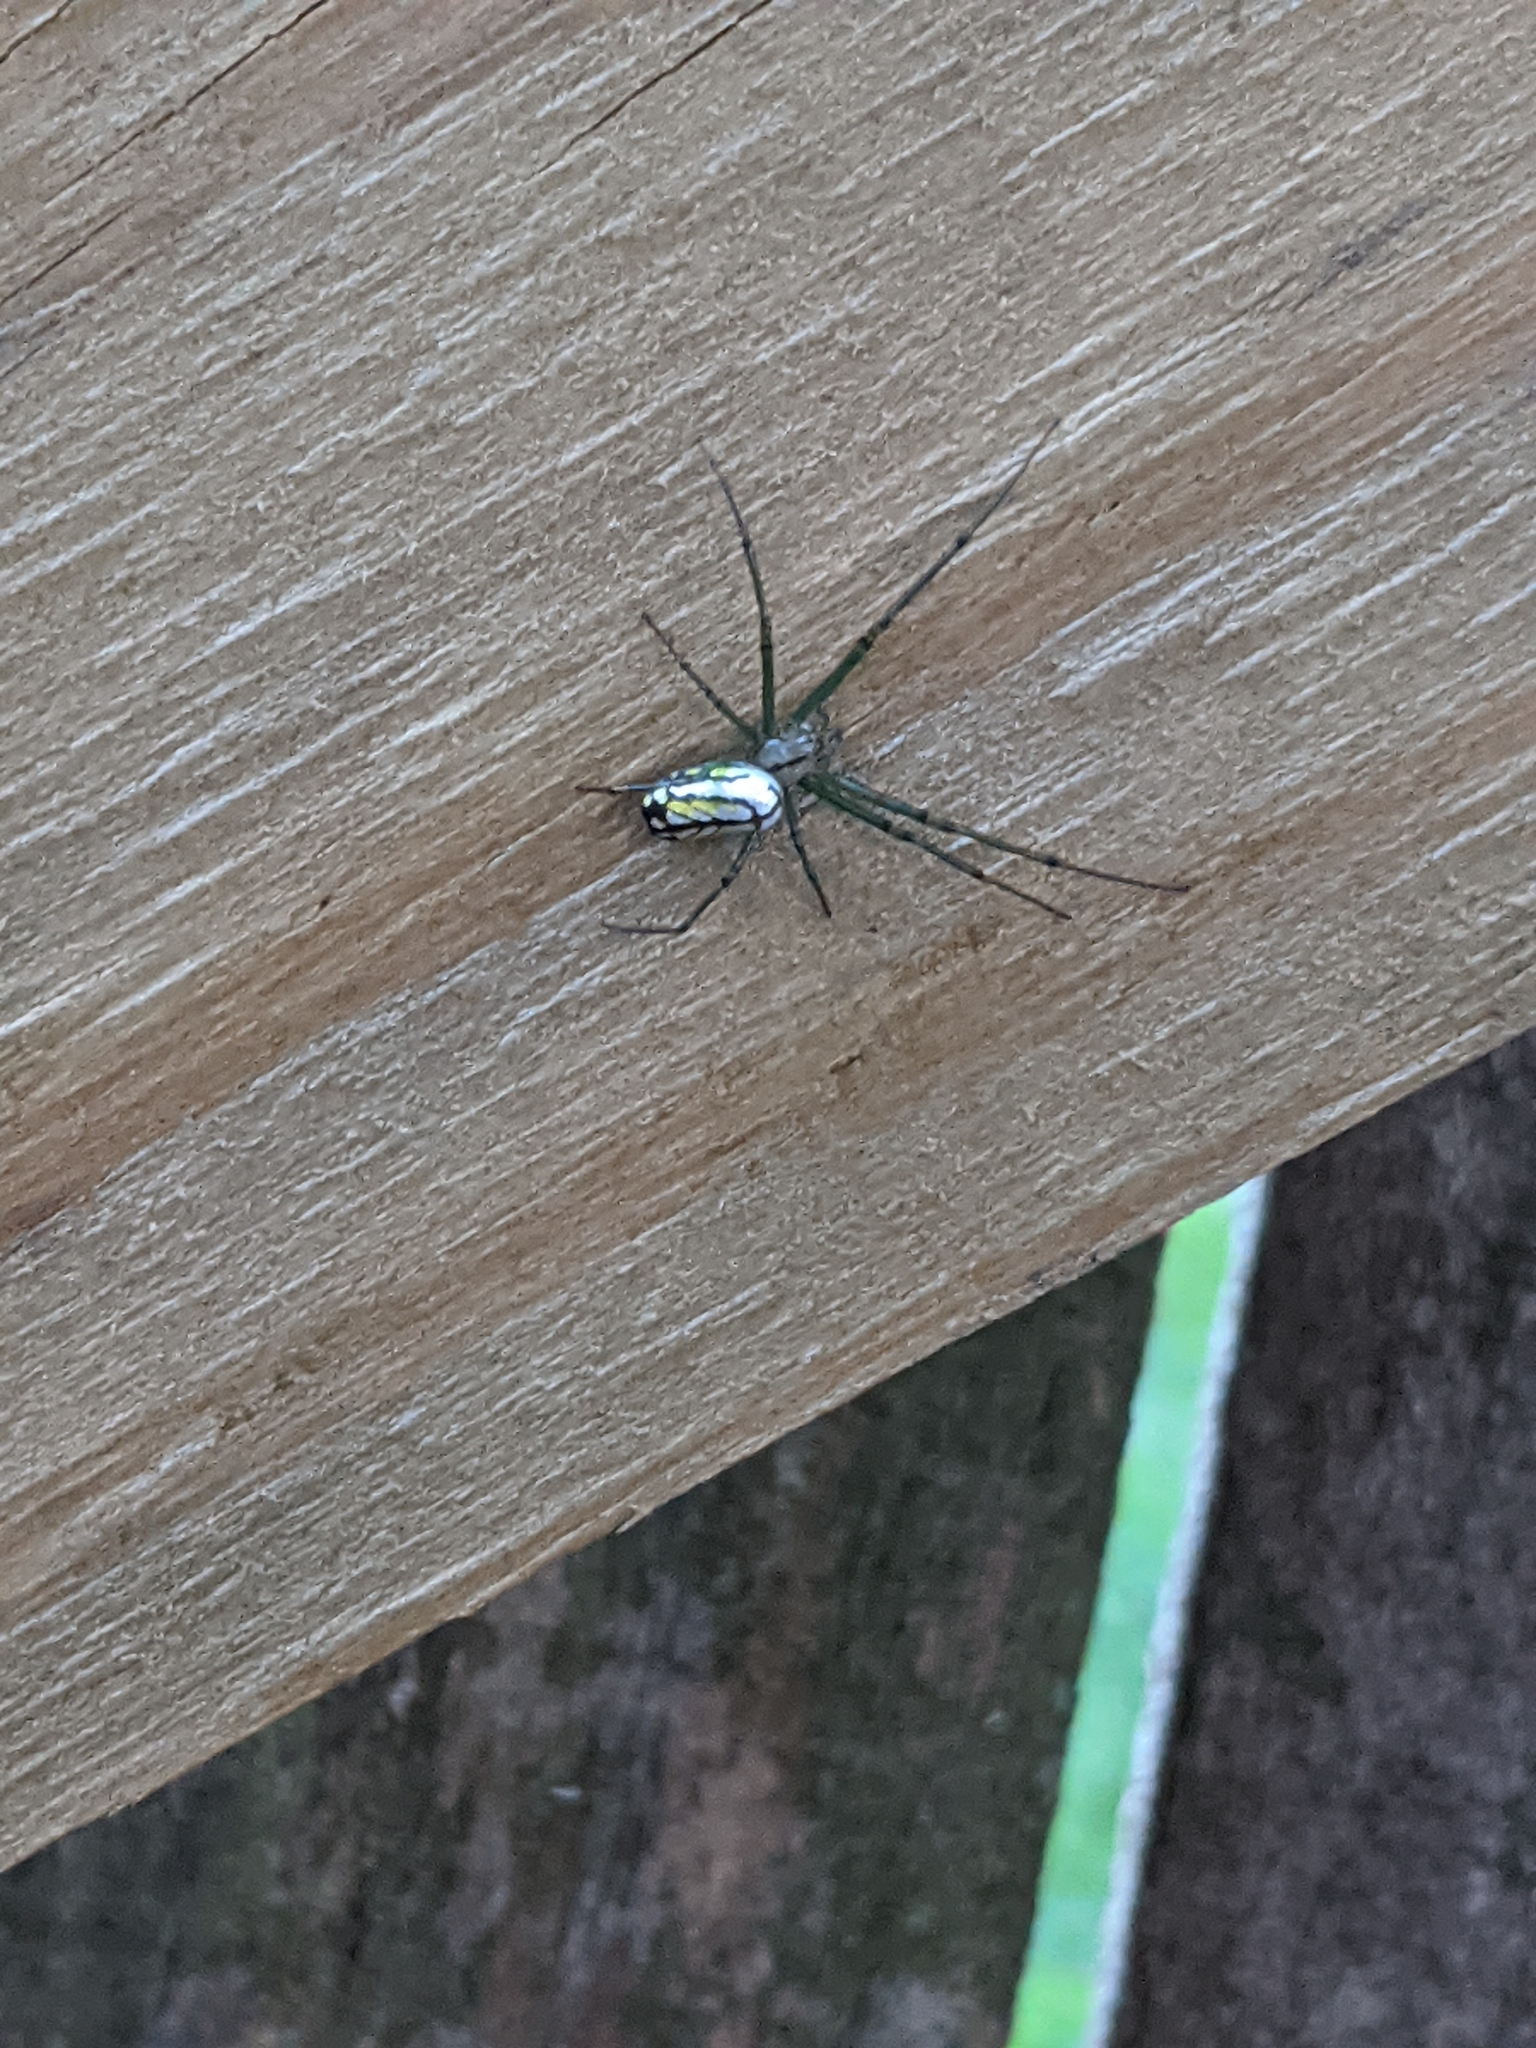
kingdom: Animalia
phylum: Arthropoda
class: Arachnida
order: Araneae
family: Tetragnathidae
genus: Leucauge
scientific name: Leucauge venusta
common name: Longjawed orb weavers
